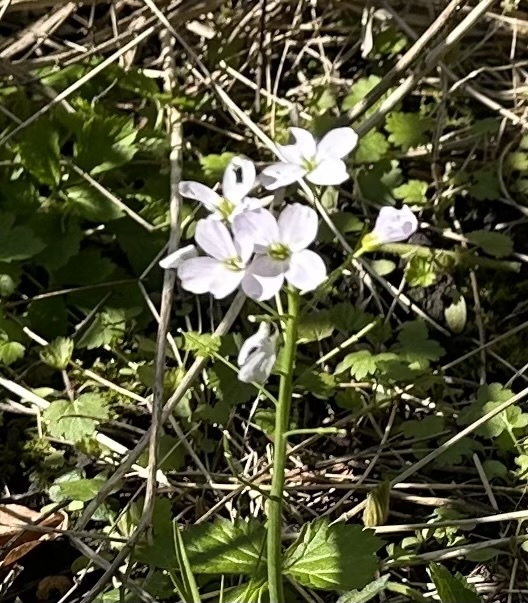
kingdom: Plantae
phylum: Tracheophyta
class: Magnoliopsida
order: Brassicales
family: Brassicaceae
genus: Cardamine
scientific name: Cardamine pratensis
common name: Cuckoo flower
